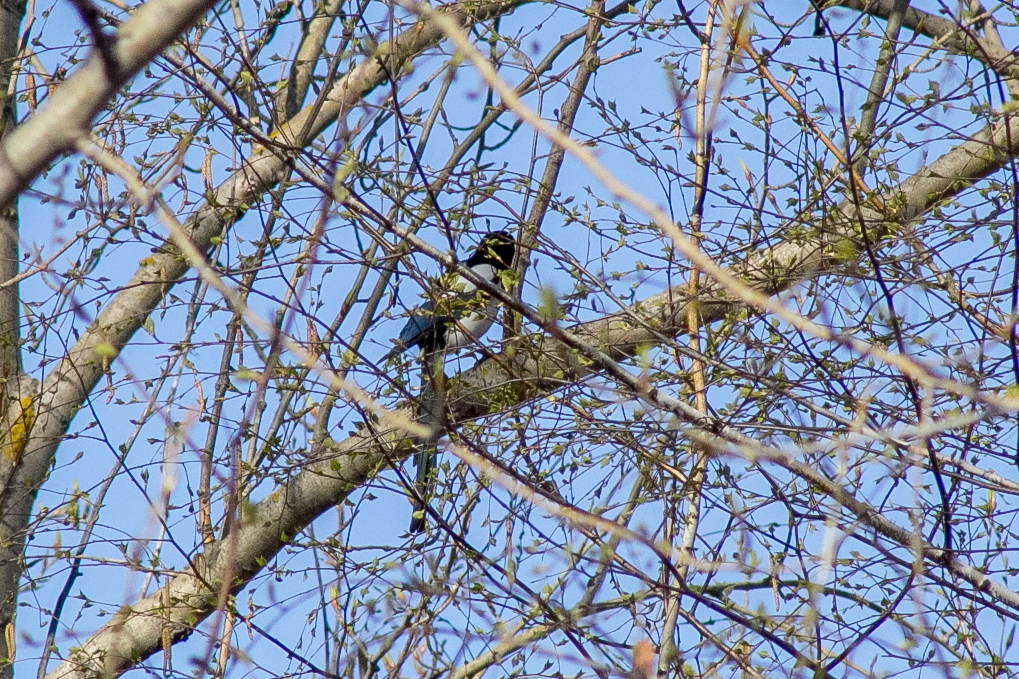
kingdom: Animalia
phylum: Chordata
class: Aves
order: Passeriformes
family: Corvidae
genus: Pica
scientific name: Pica pica
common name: Eurasian magpie
